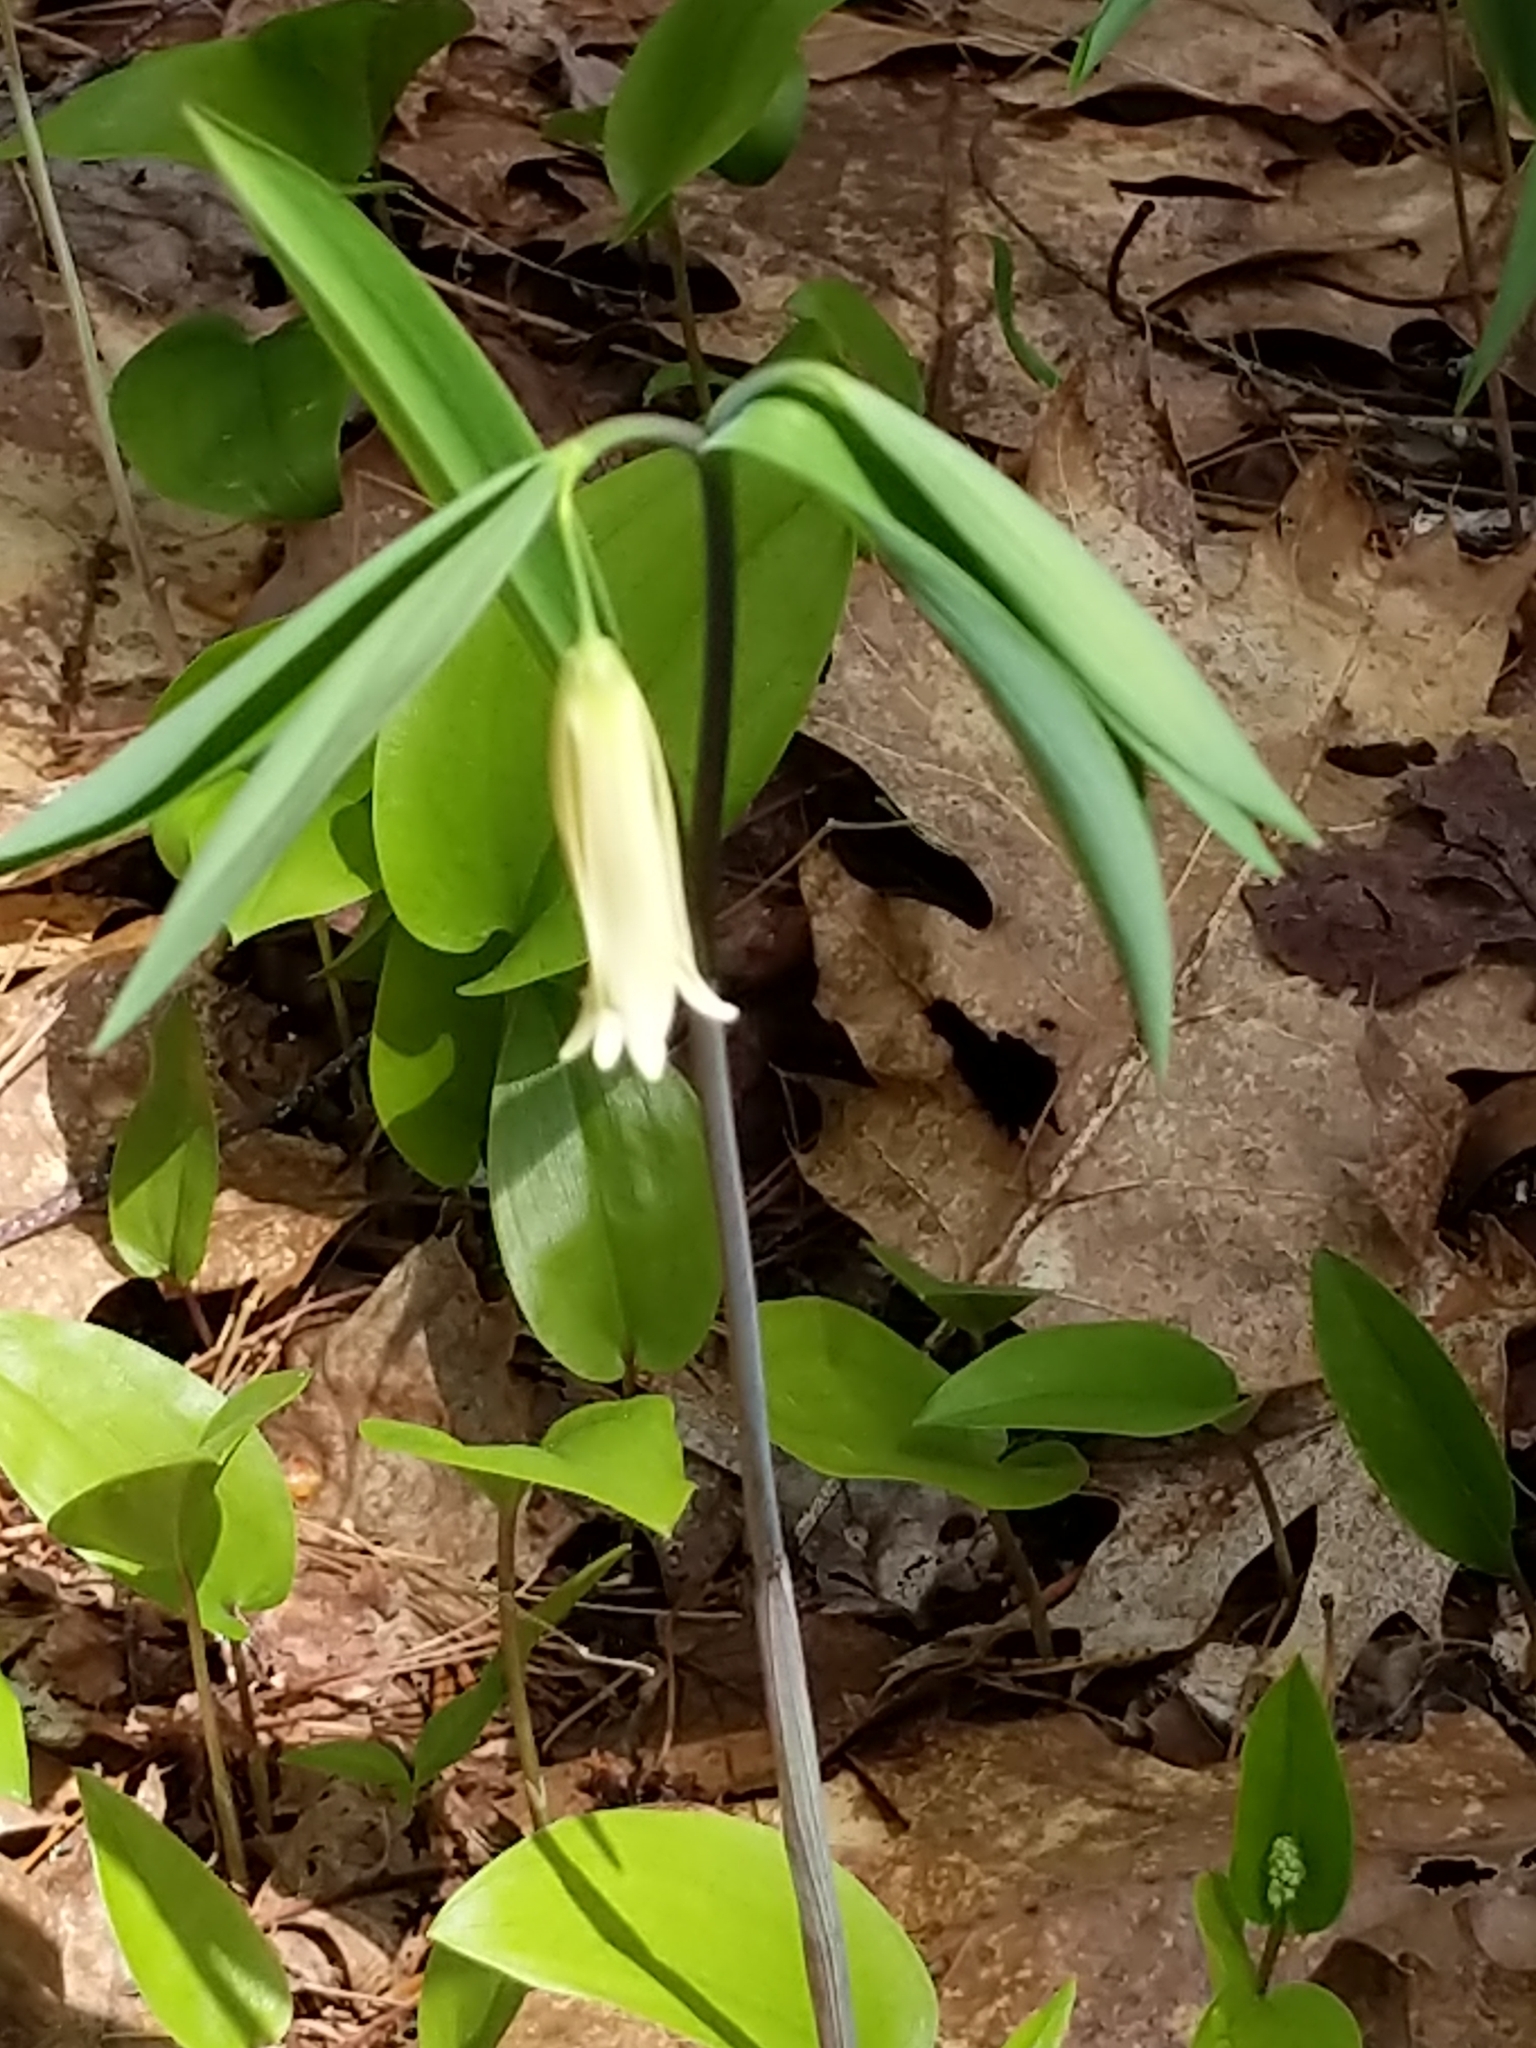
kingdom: Plantae
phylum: Tracheophyta
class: Liliopsida
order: Liliales
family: Colchicaceae
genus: Uvularia
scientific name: Uvularia sessilifolia
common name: Straw-lily
